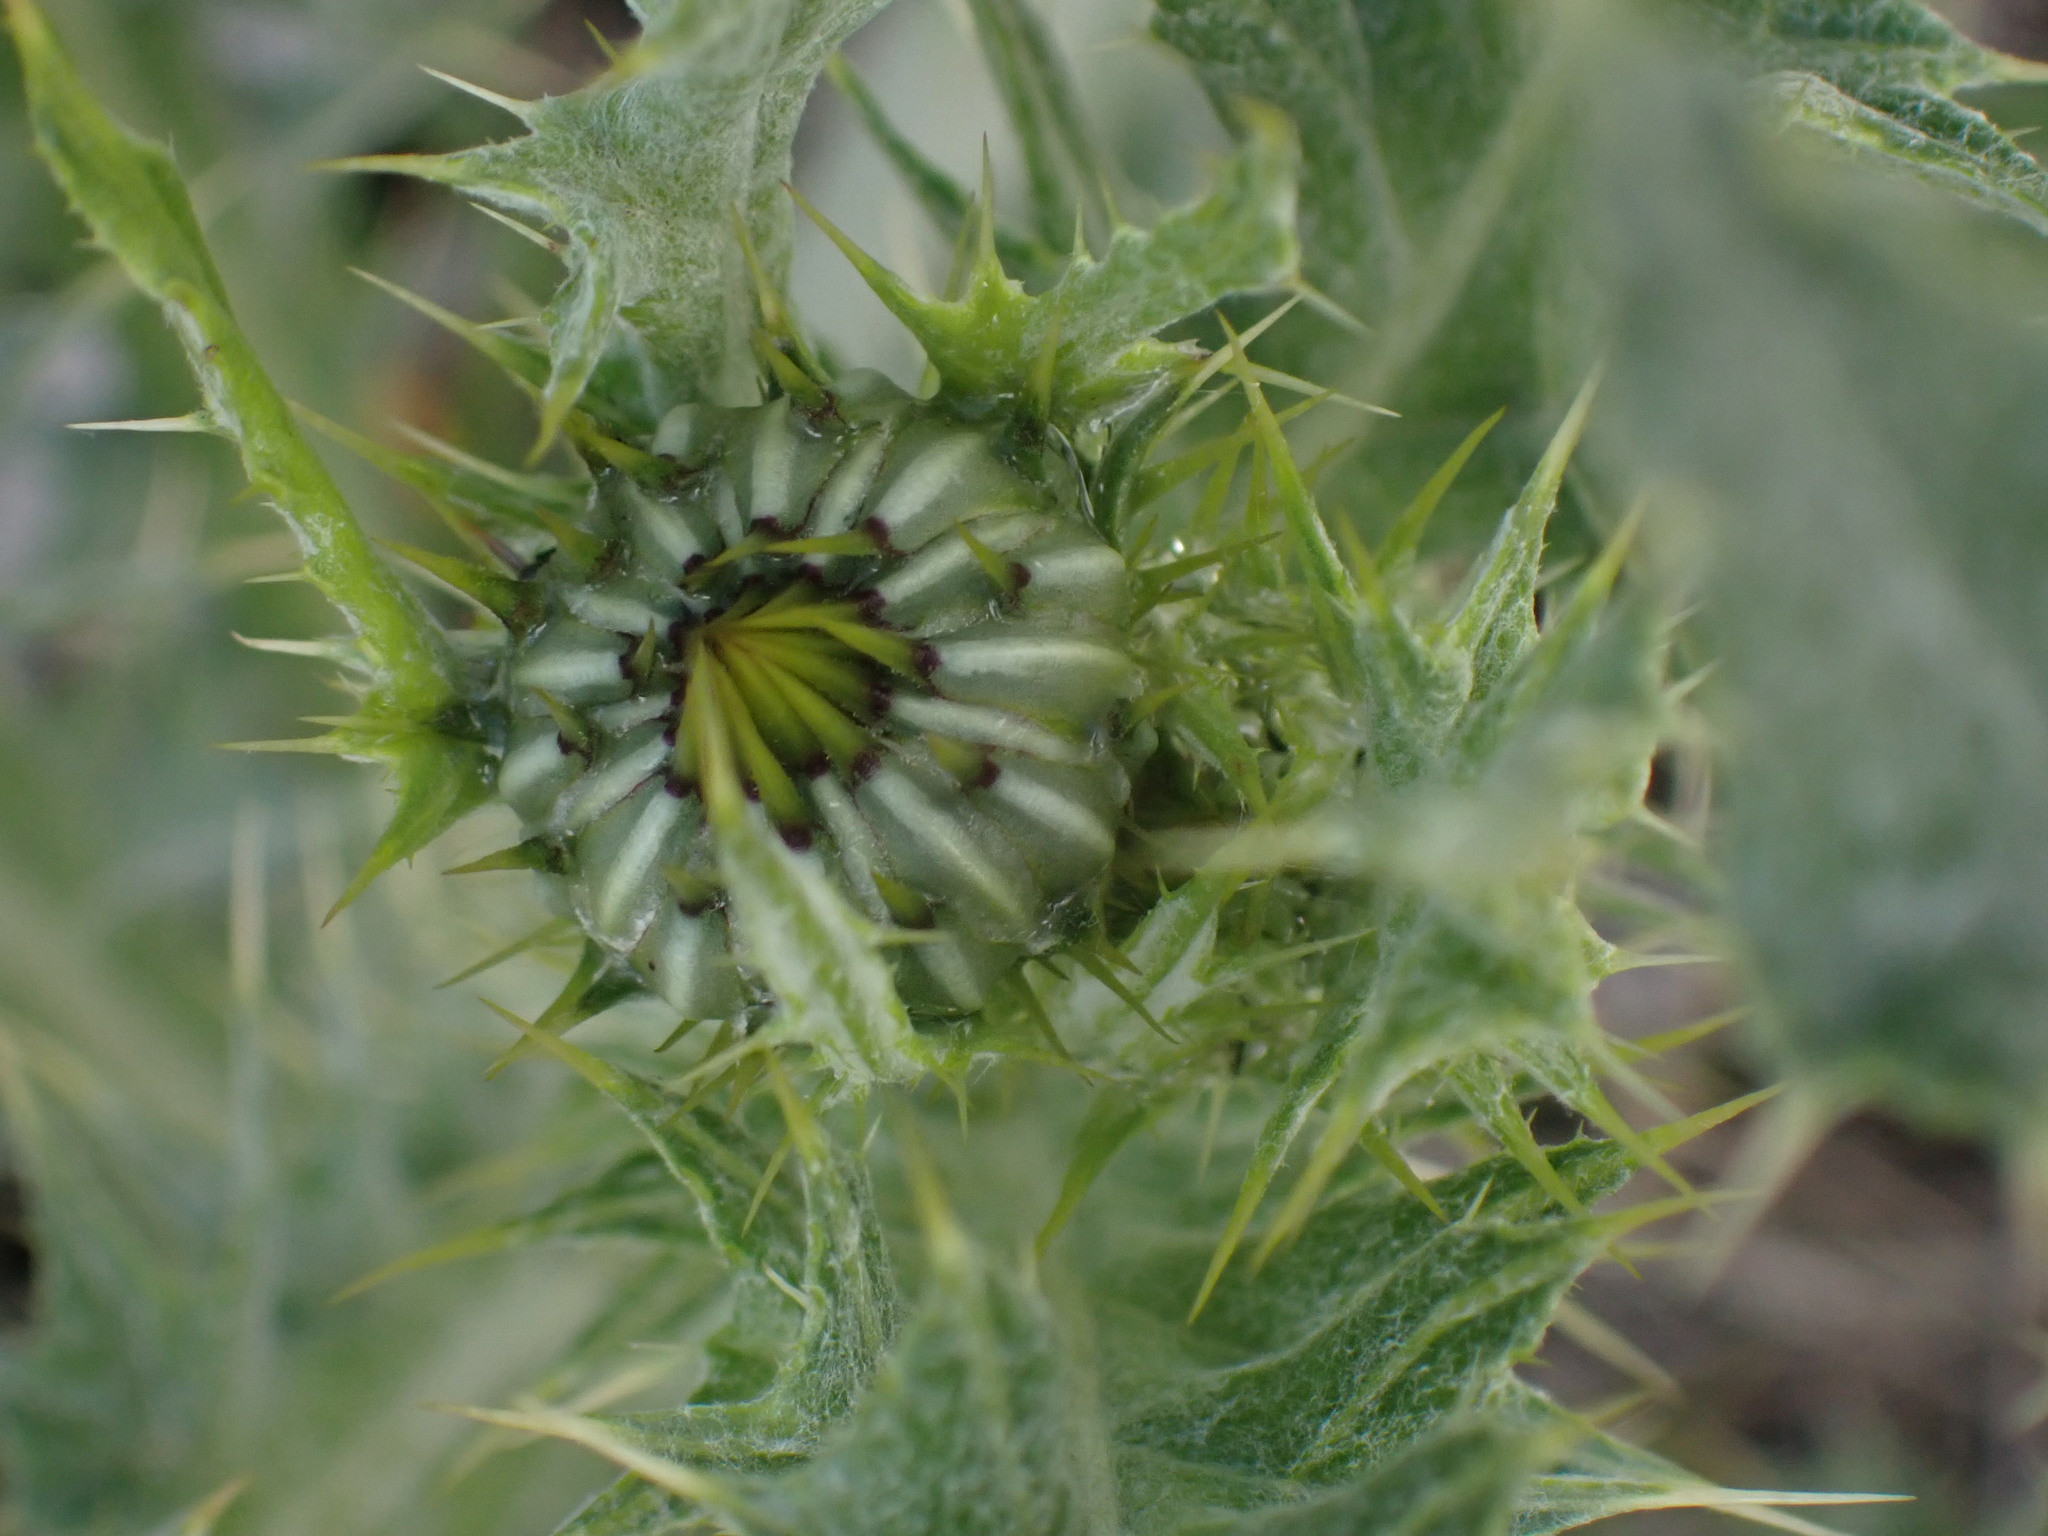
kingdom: Plantae
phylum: Tracheophyta
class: Magnoliopsida
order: Asterales
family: Asteraceae
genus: Cirsium
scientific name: Cirsium undulatum
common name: Pasture thistle
